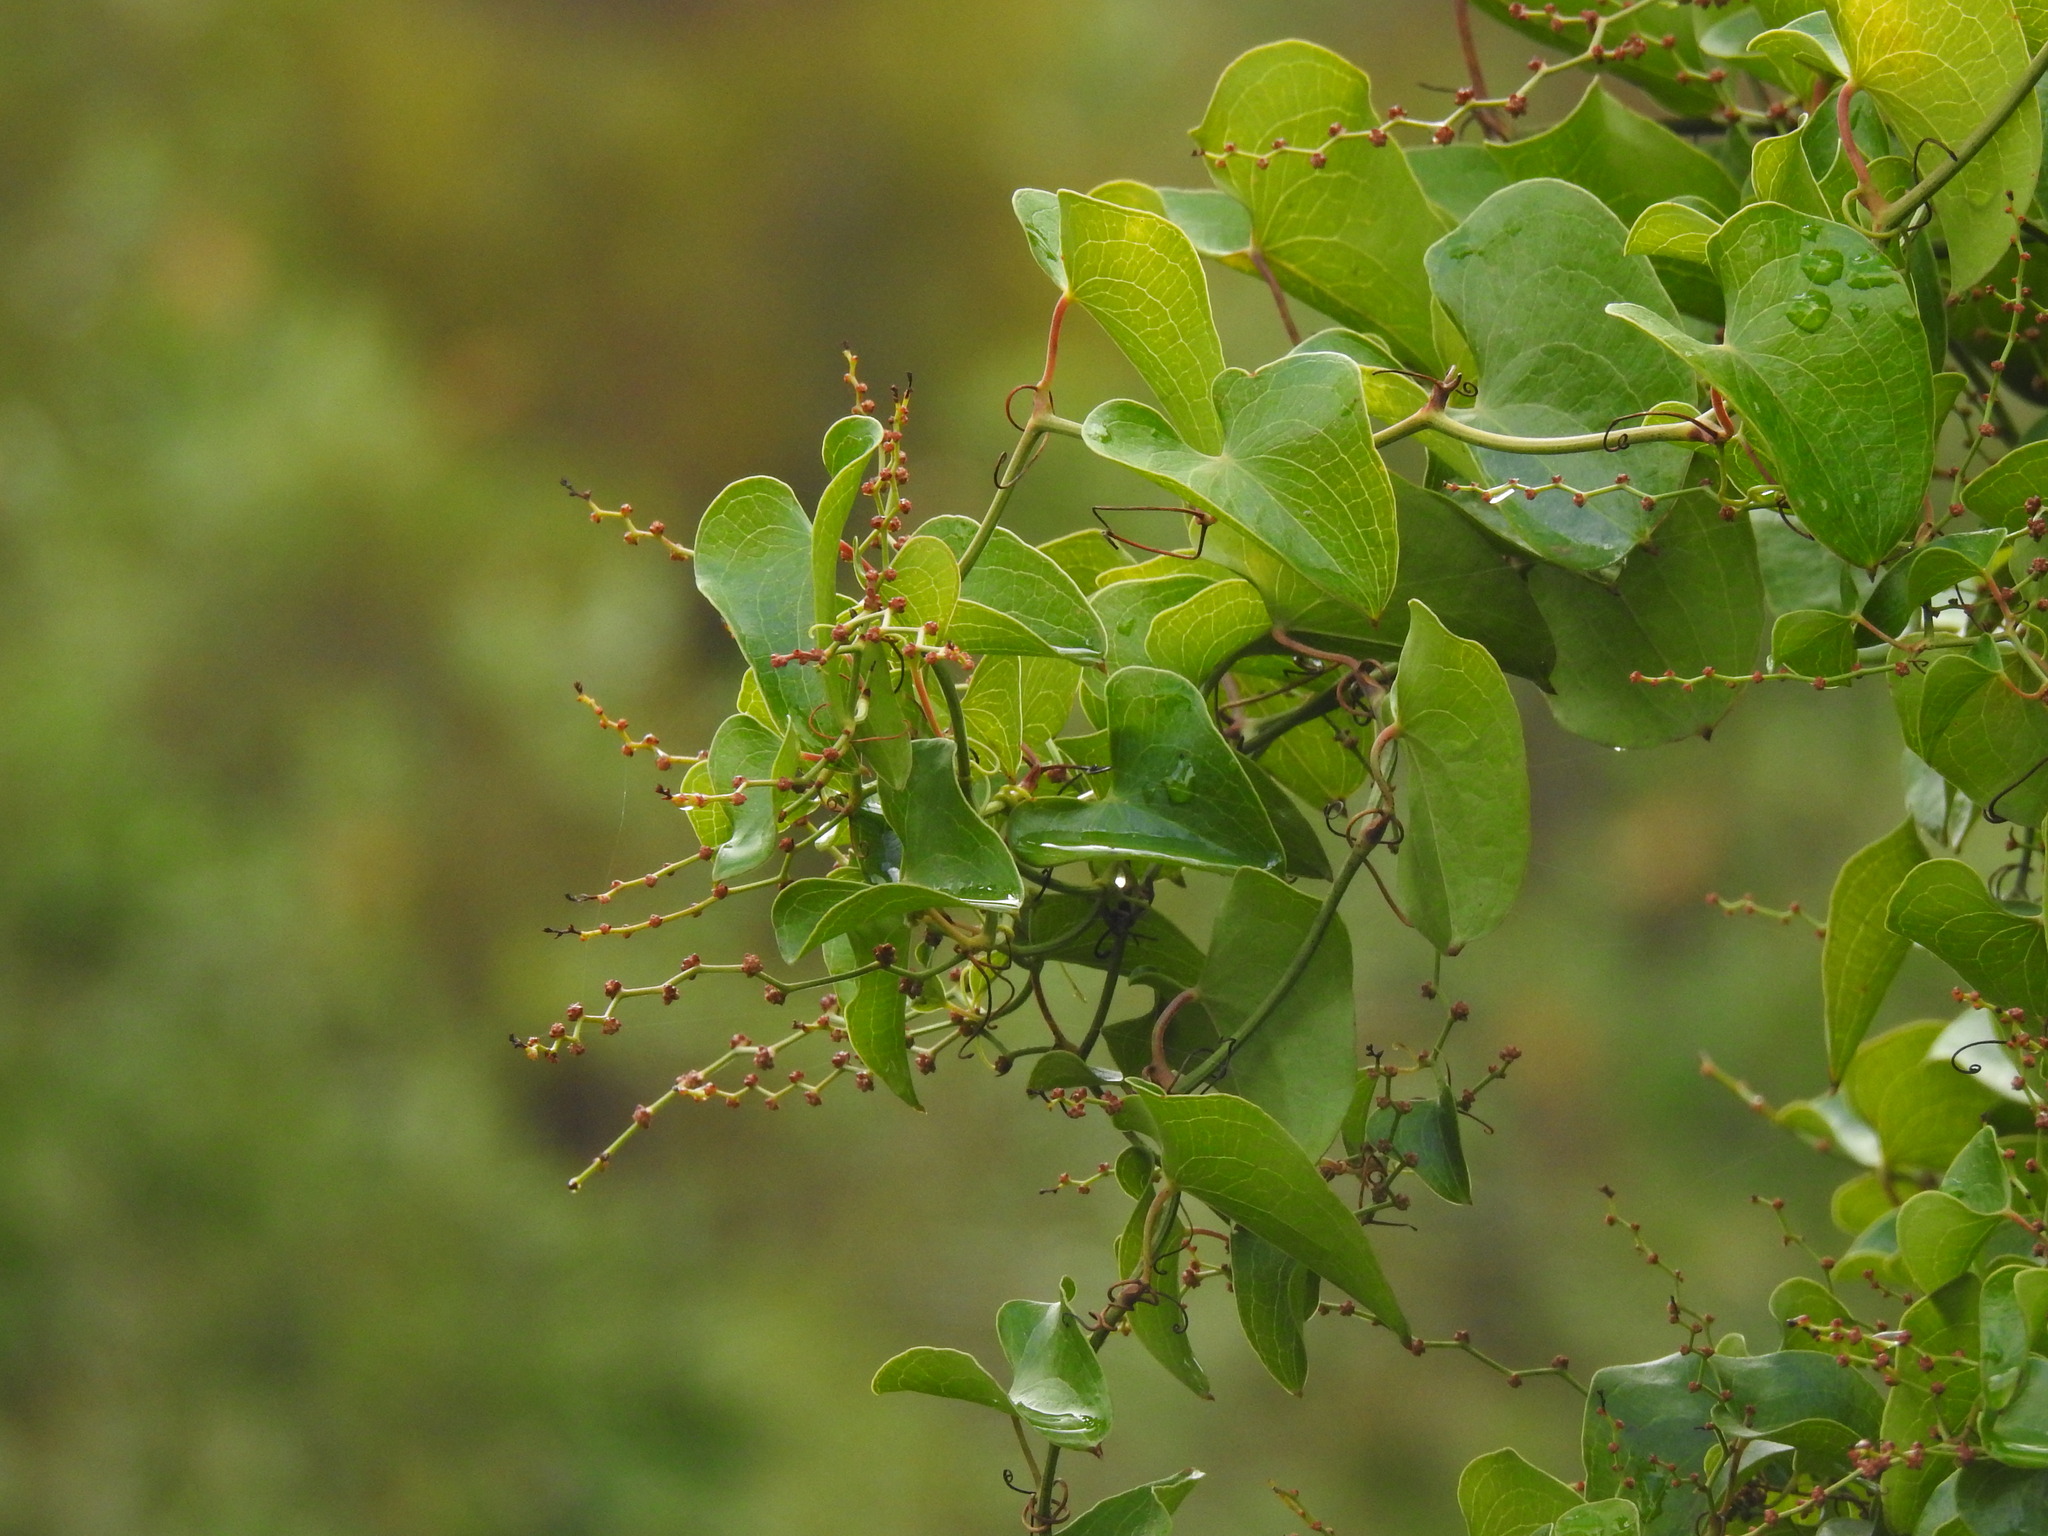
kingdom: Plantae
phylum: Tracheophyta
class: Liliopsida
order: Liliales
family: Smilacaceae
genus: Smilax
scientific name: Smilax aspera
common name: Common smilax
